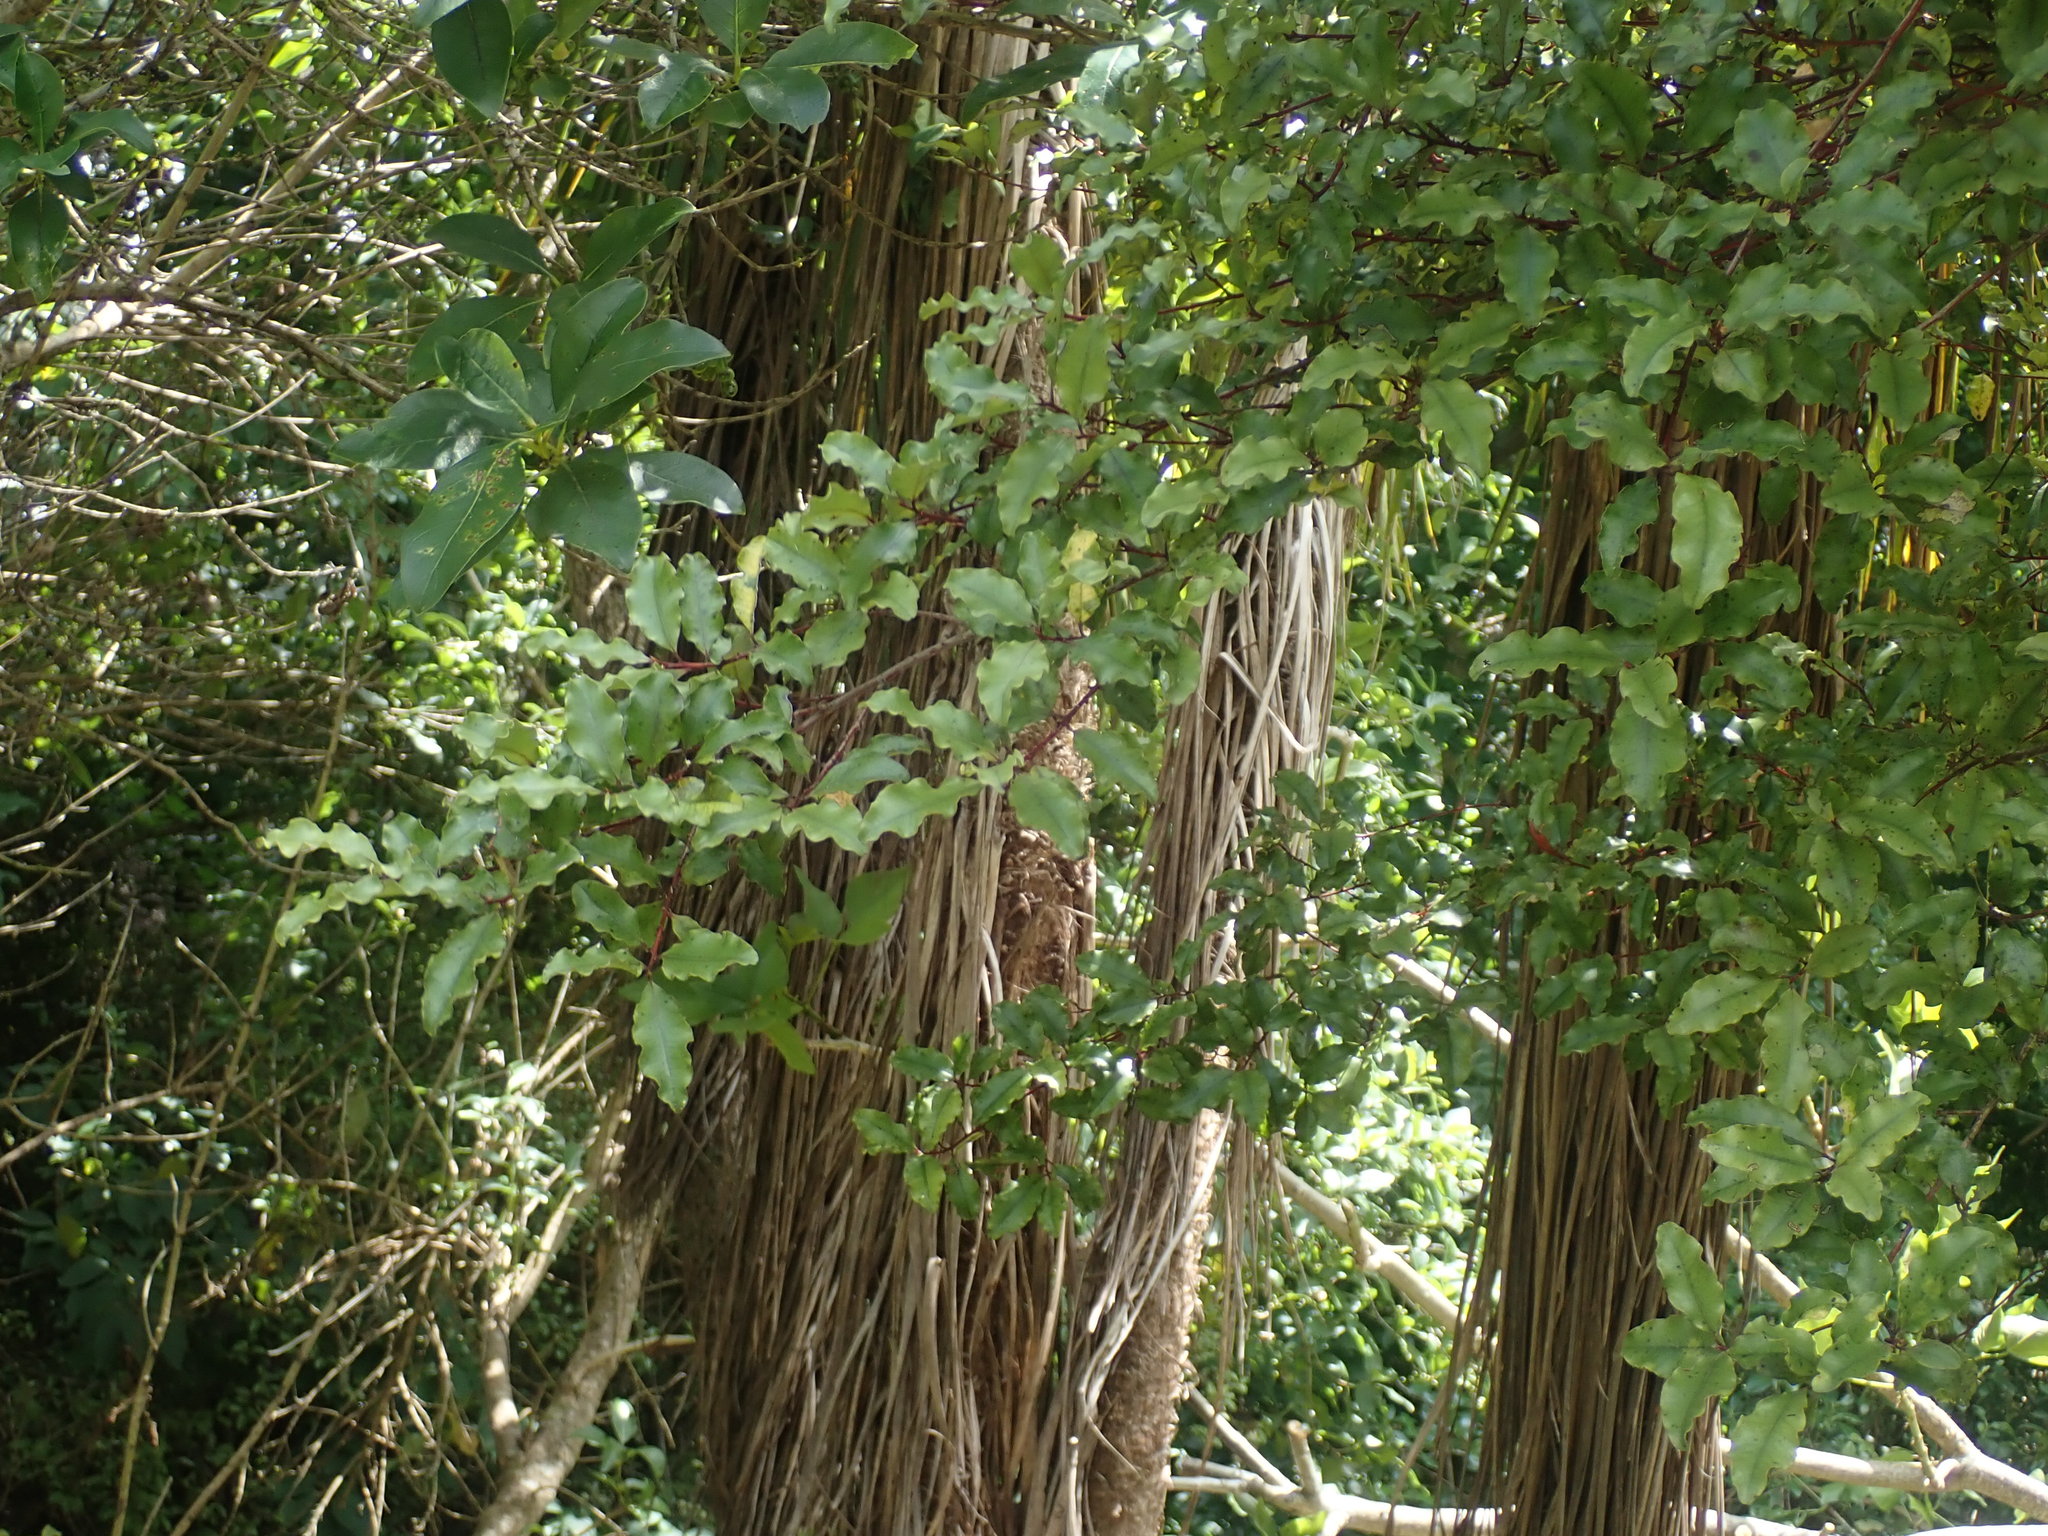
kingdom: Plantae
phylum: Tracheophyta
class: Magnoliopsida
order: Ericales
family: Primulaceae
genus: Myrsine
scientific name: Myrsine australis
